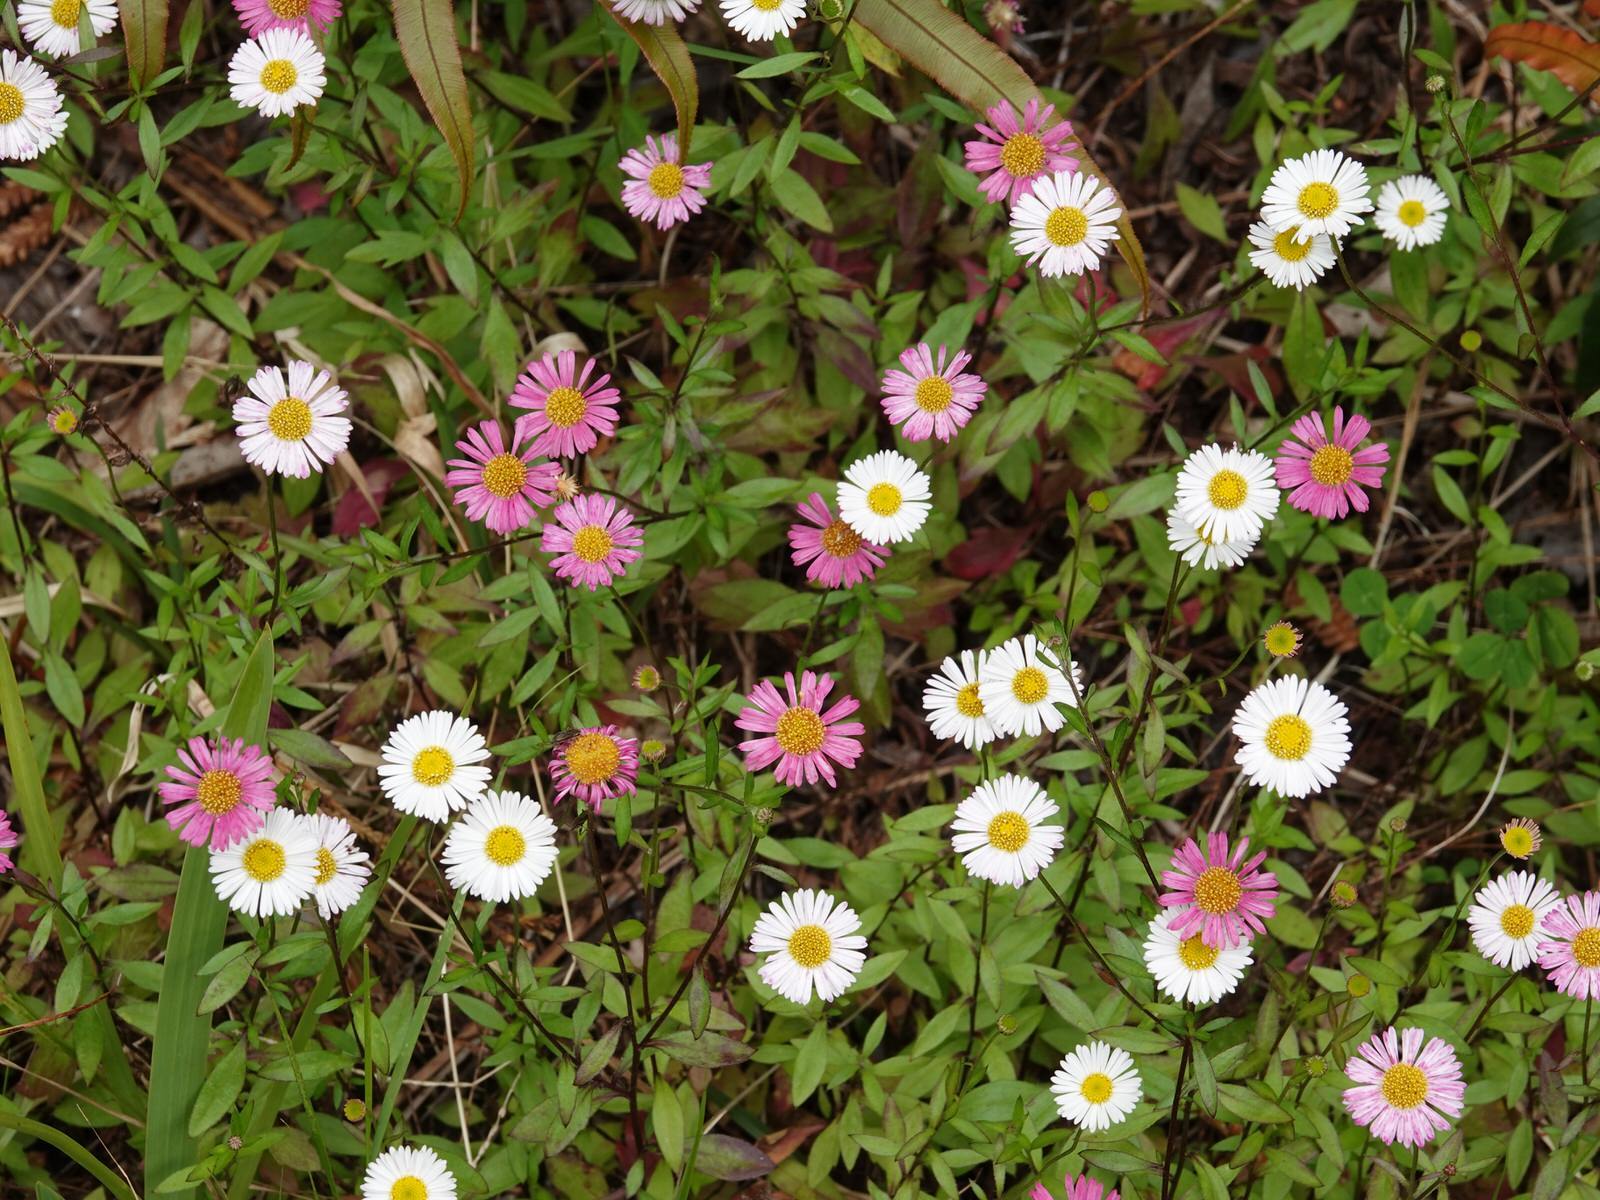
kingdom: Plantae
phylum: Tracheophyta
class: Magnoliopsida
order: Asterales
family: Asteraceae
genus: Erigeron
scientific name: Erigeron karvinskianus
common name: Mexican fleabane
